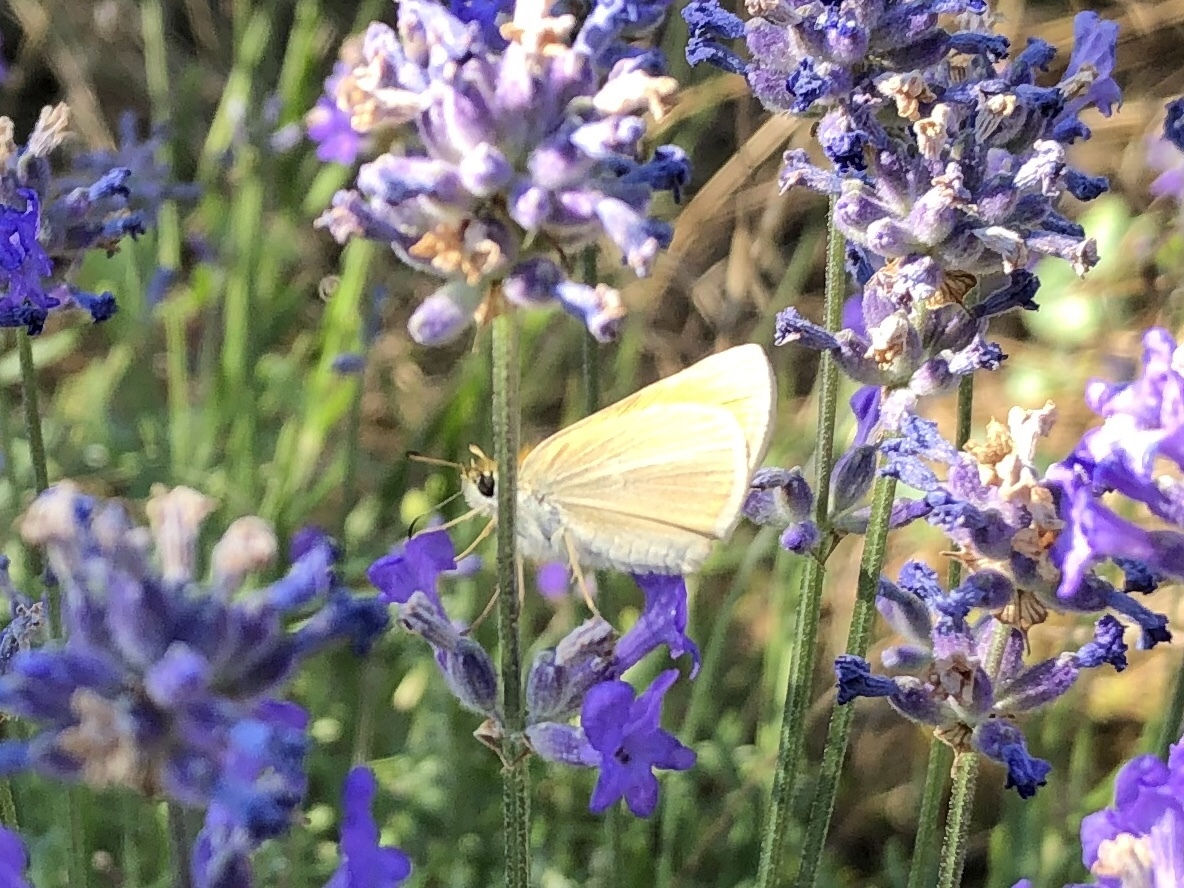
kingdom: Animalia
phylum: Arthropoda
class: Insecta
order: Lepidoptera
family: Hesperiidae
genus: Thymelicus
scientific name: Thymelicus lineola
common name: Essex skipper
